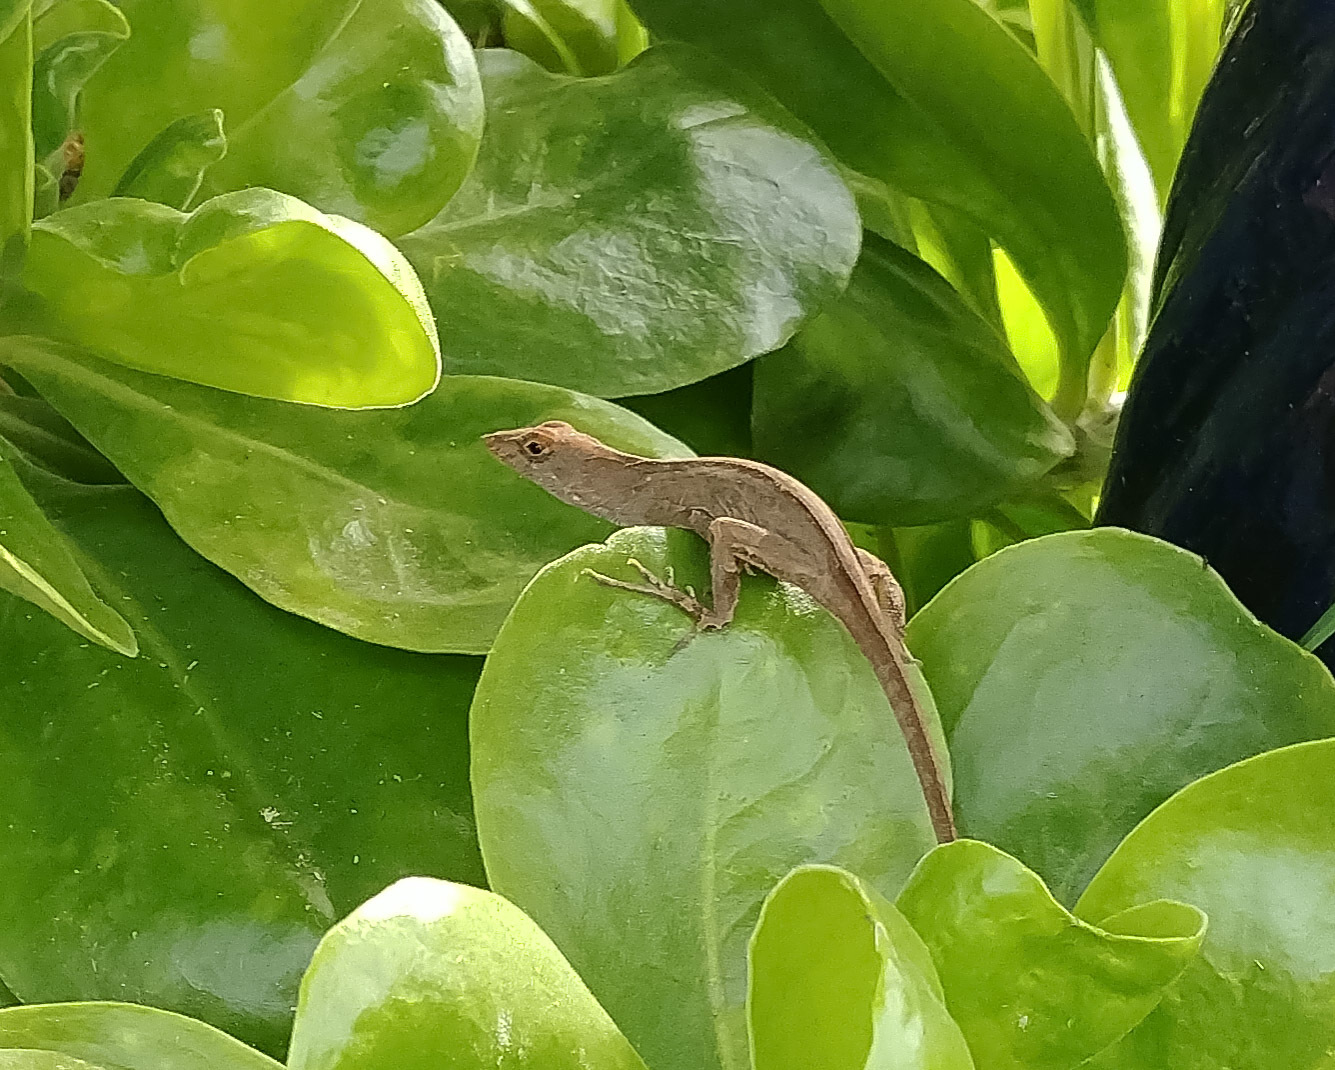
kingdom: Animalia
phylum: Chordata
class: Squamata
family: Dactyloidae
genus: Anolis
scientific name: Anolis sagrei
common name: Brown anole
